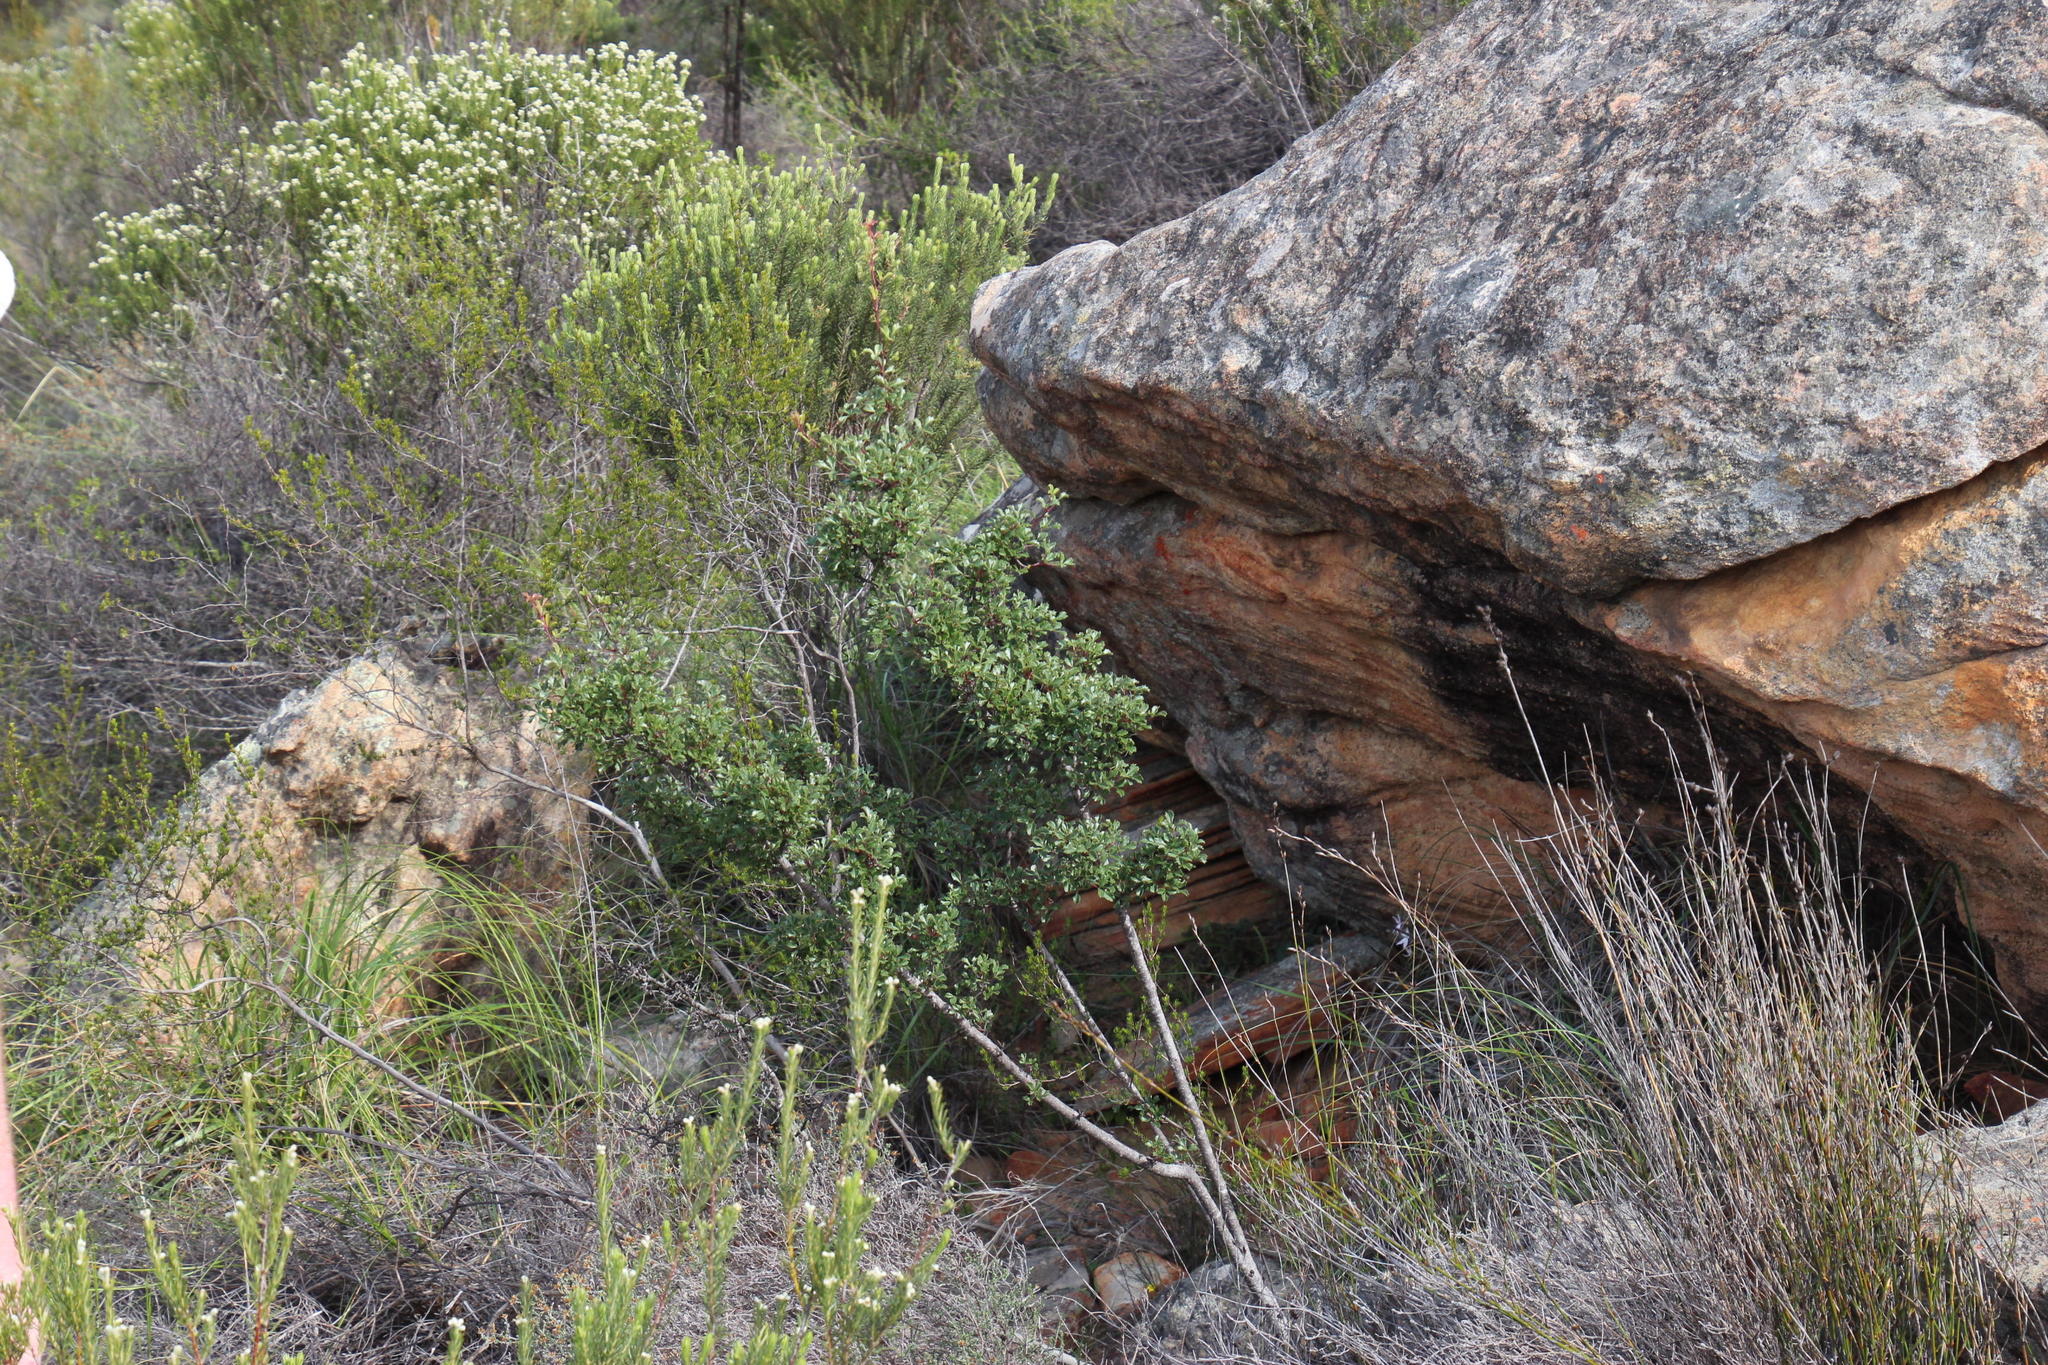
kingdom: Plantae
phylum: Tracheophyta
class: Magnoliopsida
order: Sapindales
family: Anacardiaceae
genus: Searsia
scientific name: Searsia dissecta
